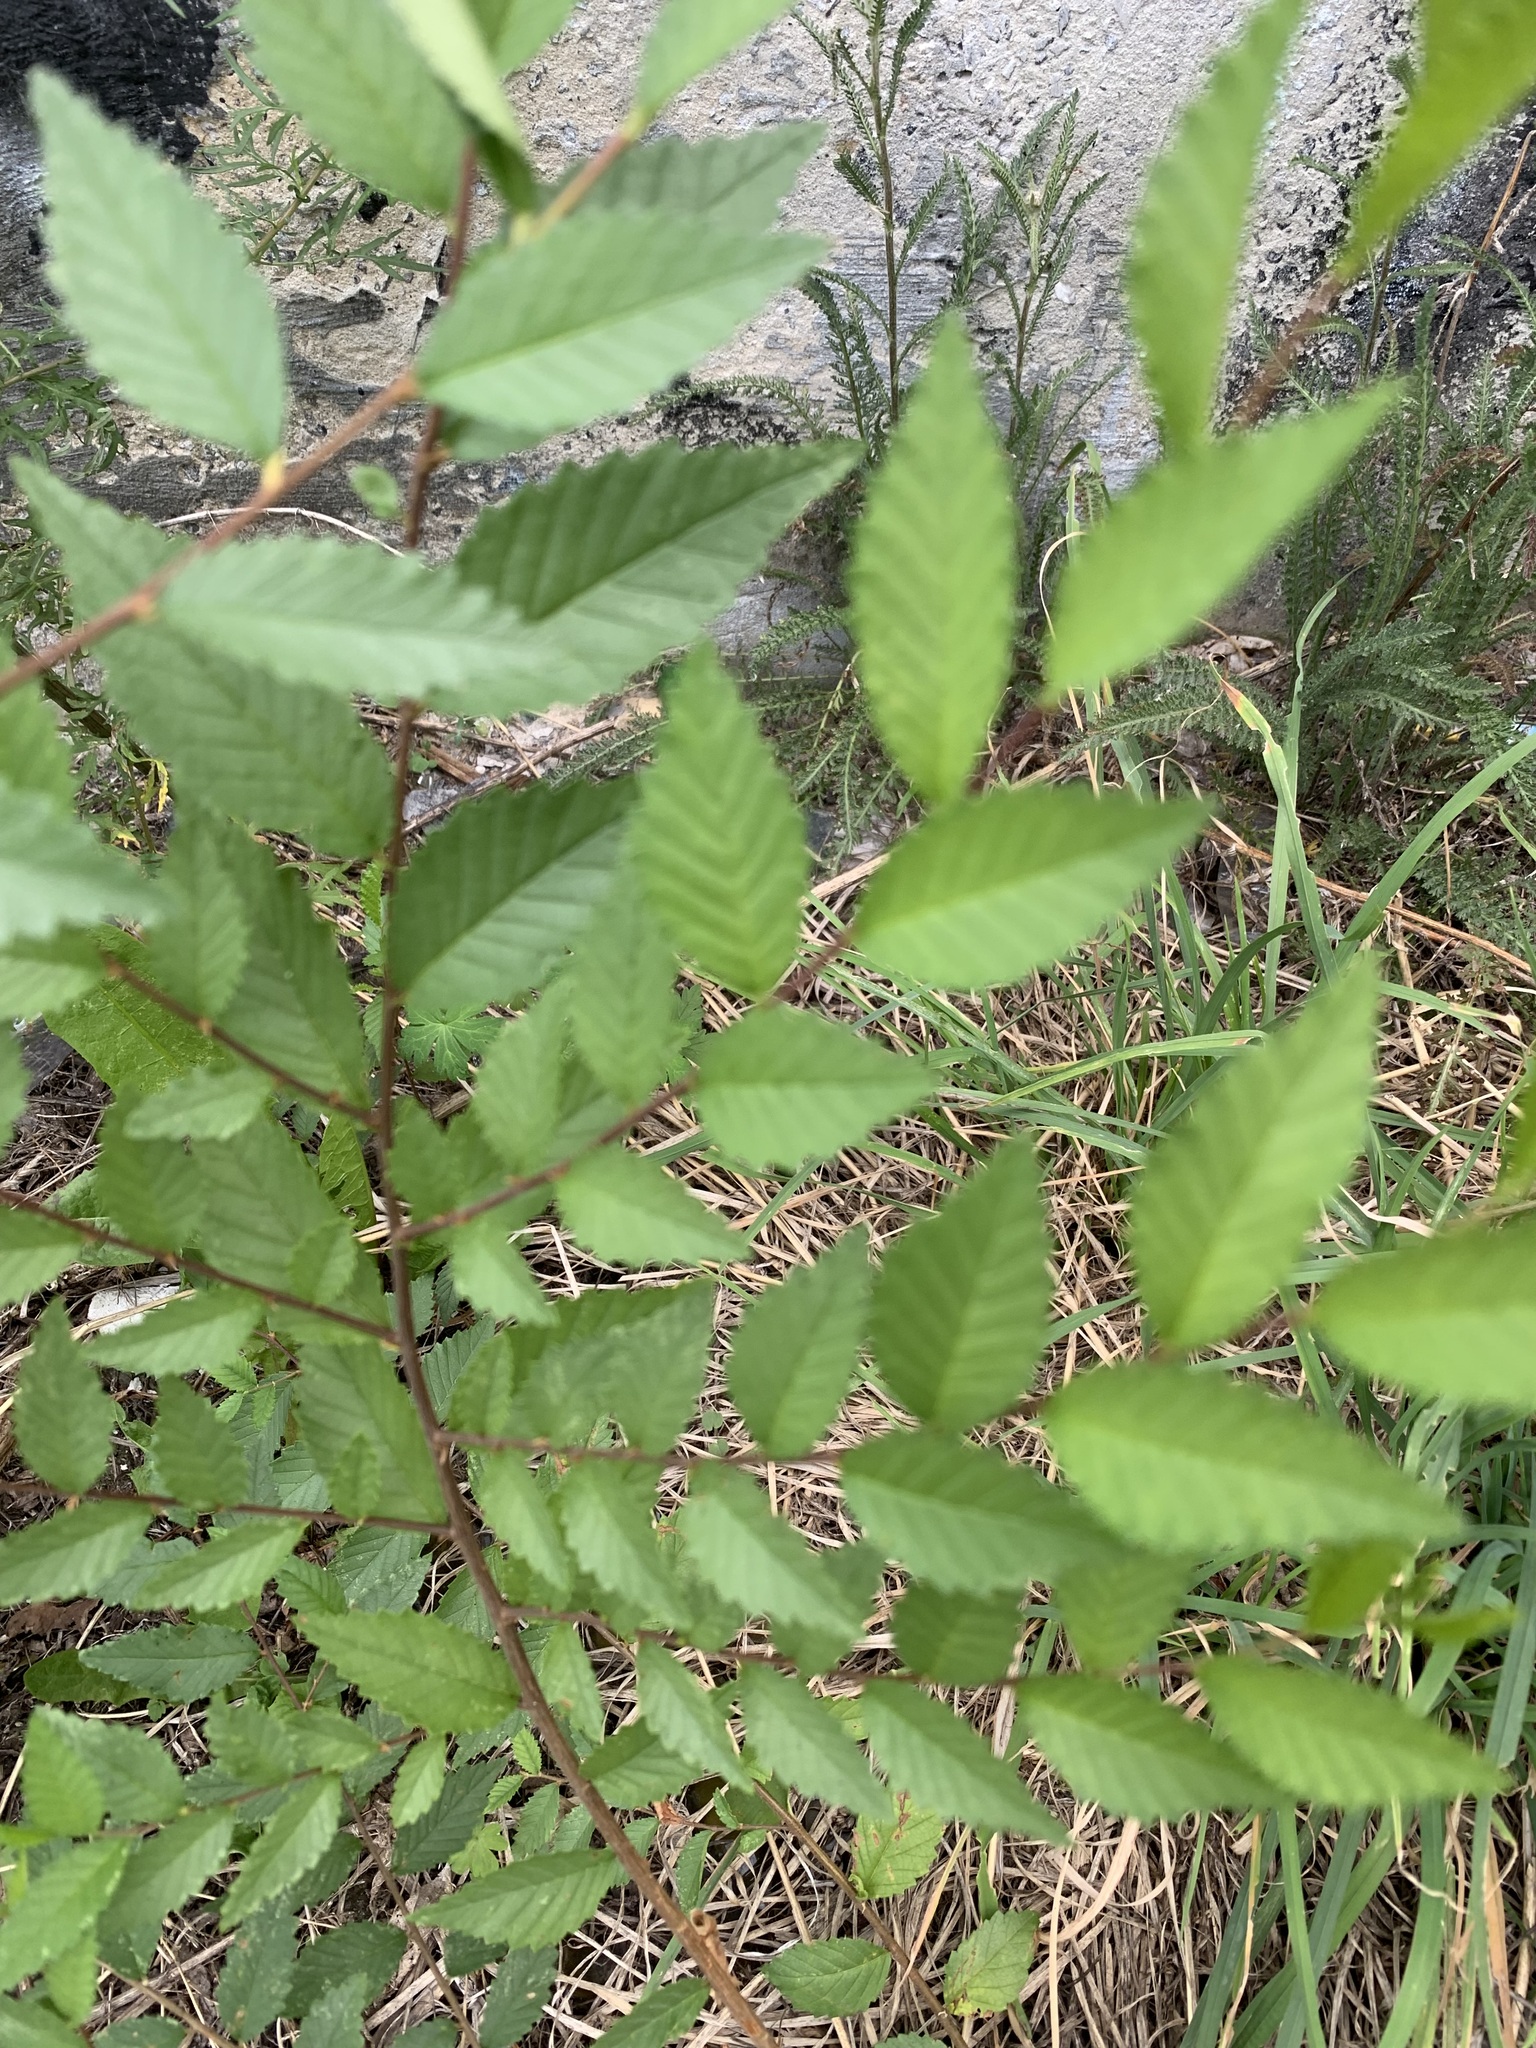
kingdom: Plantae
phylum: Tracheophyta
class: Magnoliopsida
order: Rosales
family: Ulmaceae
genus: Ulmus
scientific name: Ulmus pumila
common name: Siberian elm
